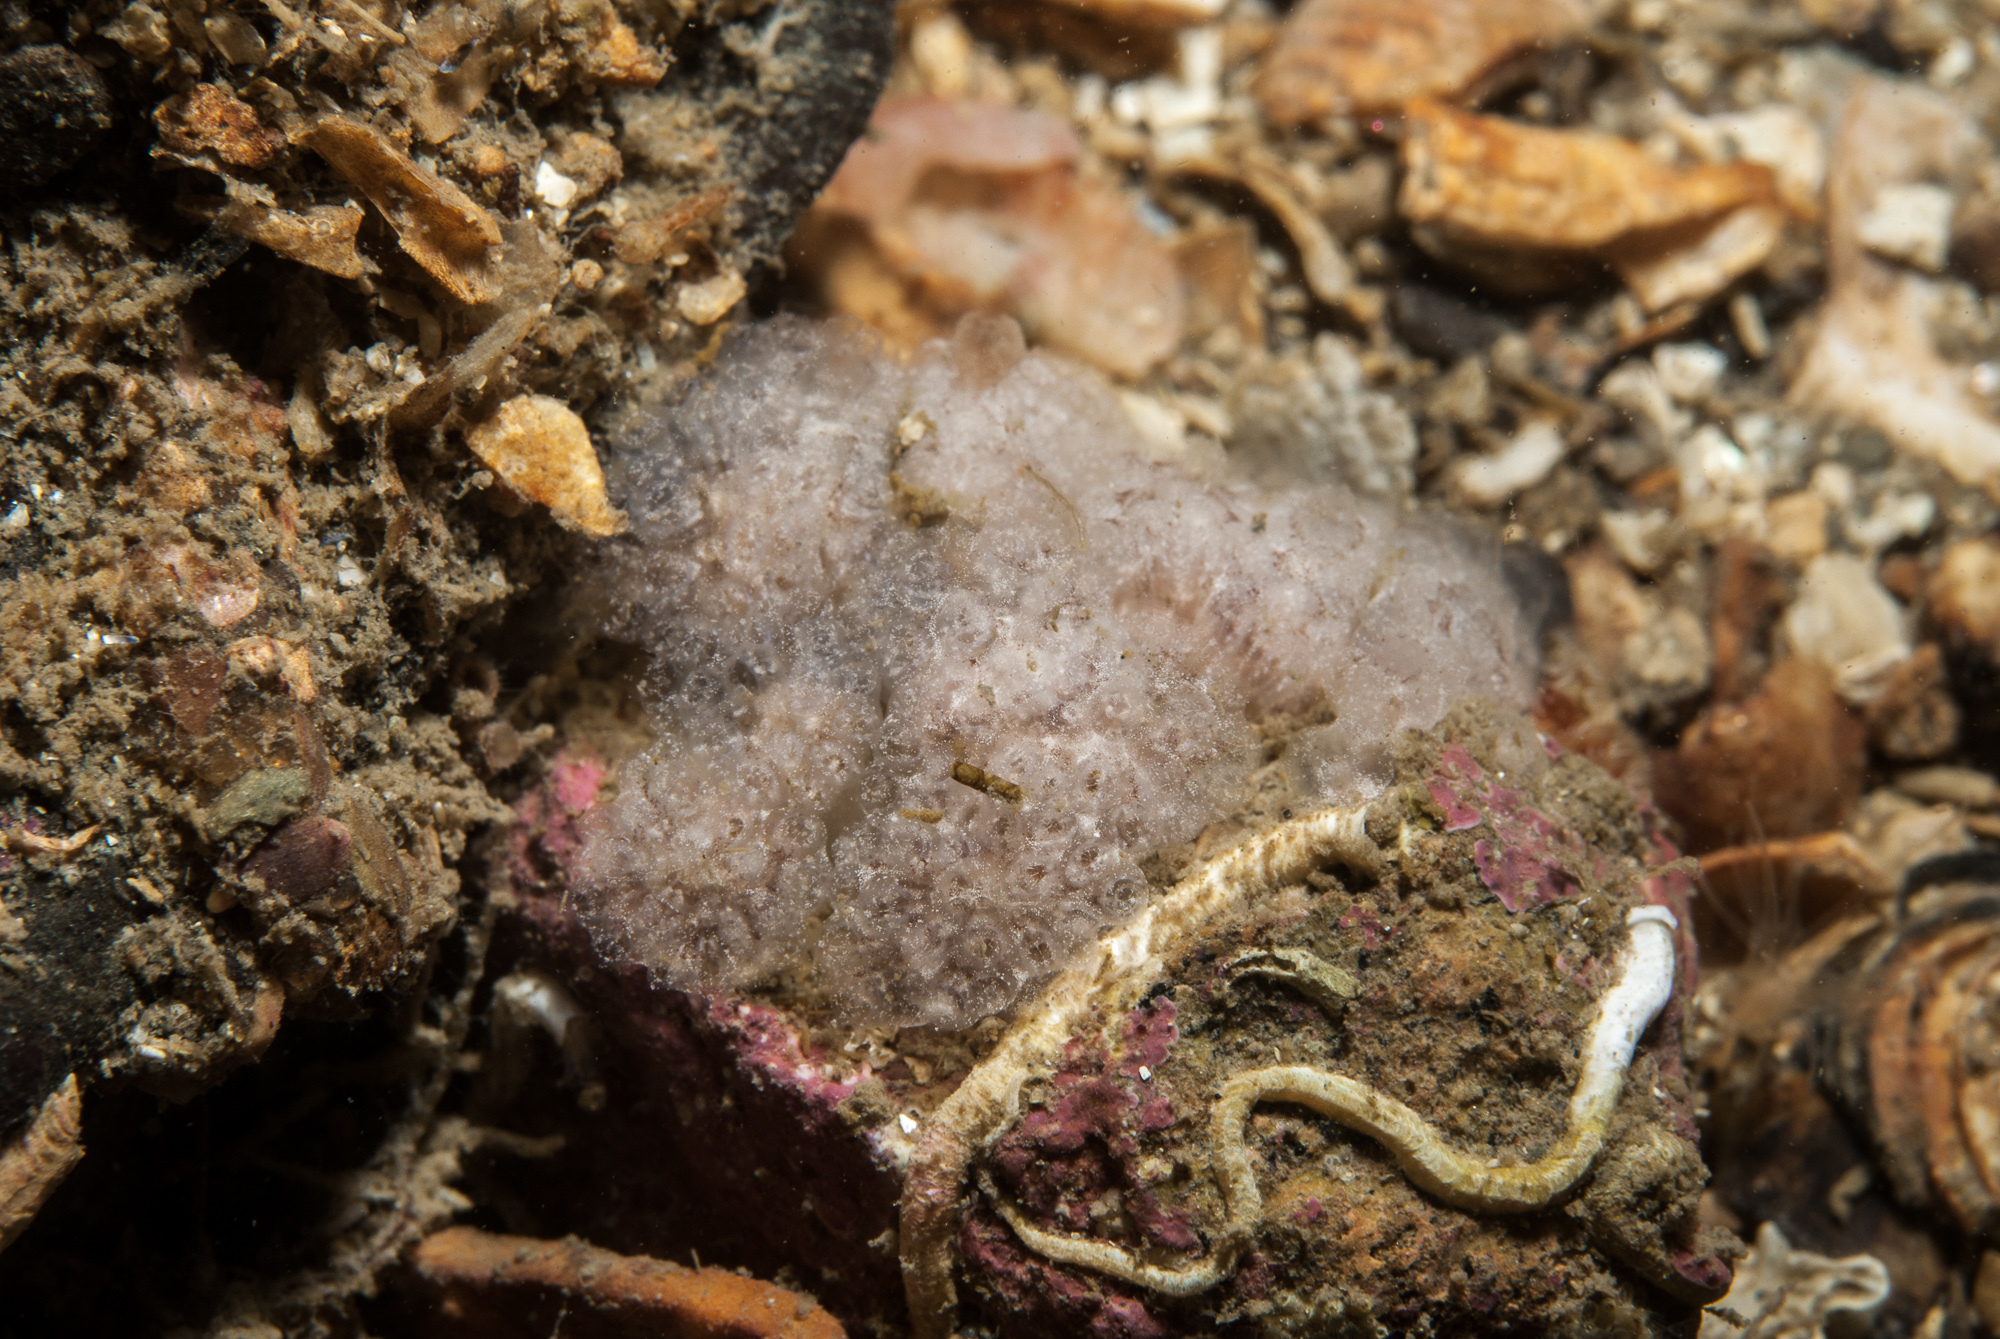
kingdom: Animalia
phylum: Chordata
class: Ascidiacea
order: Aplousobranchia
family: Holozoidae
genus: Distaplia
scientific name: Distaplia rosea
